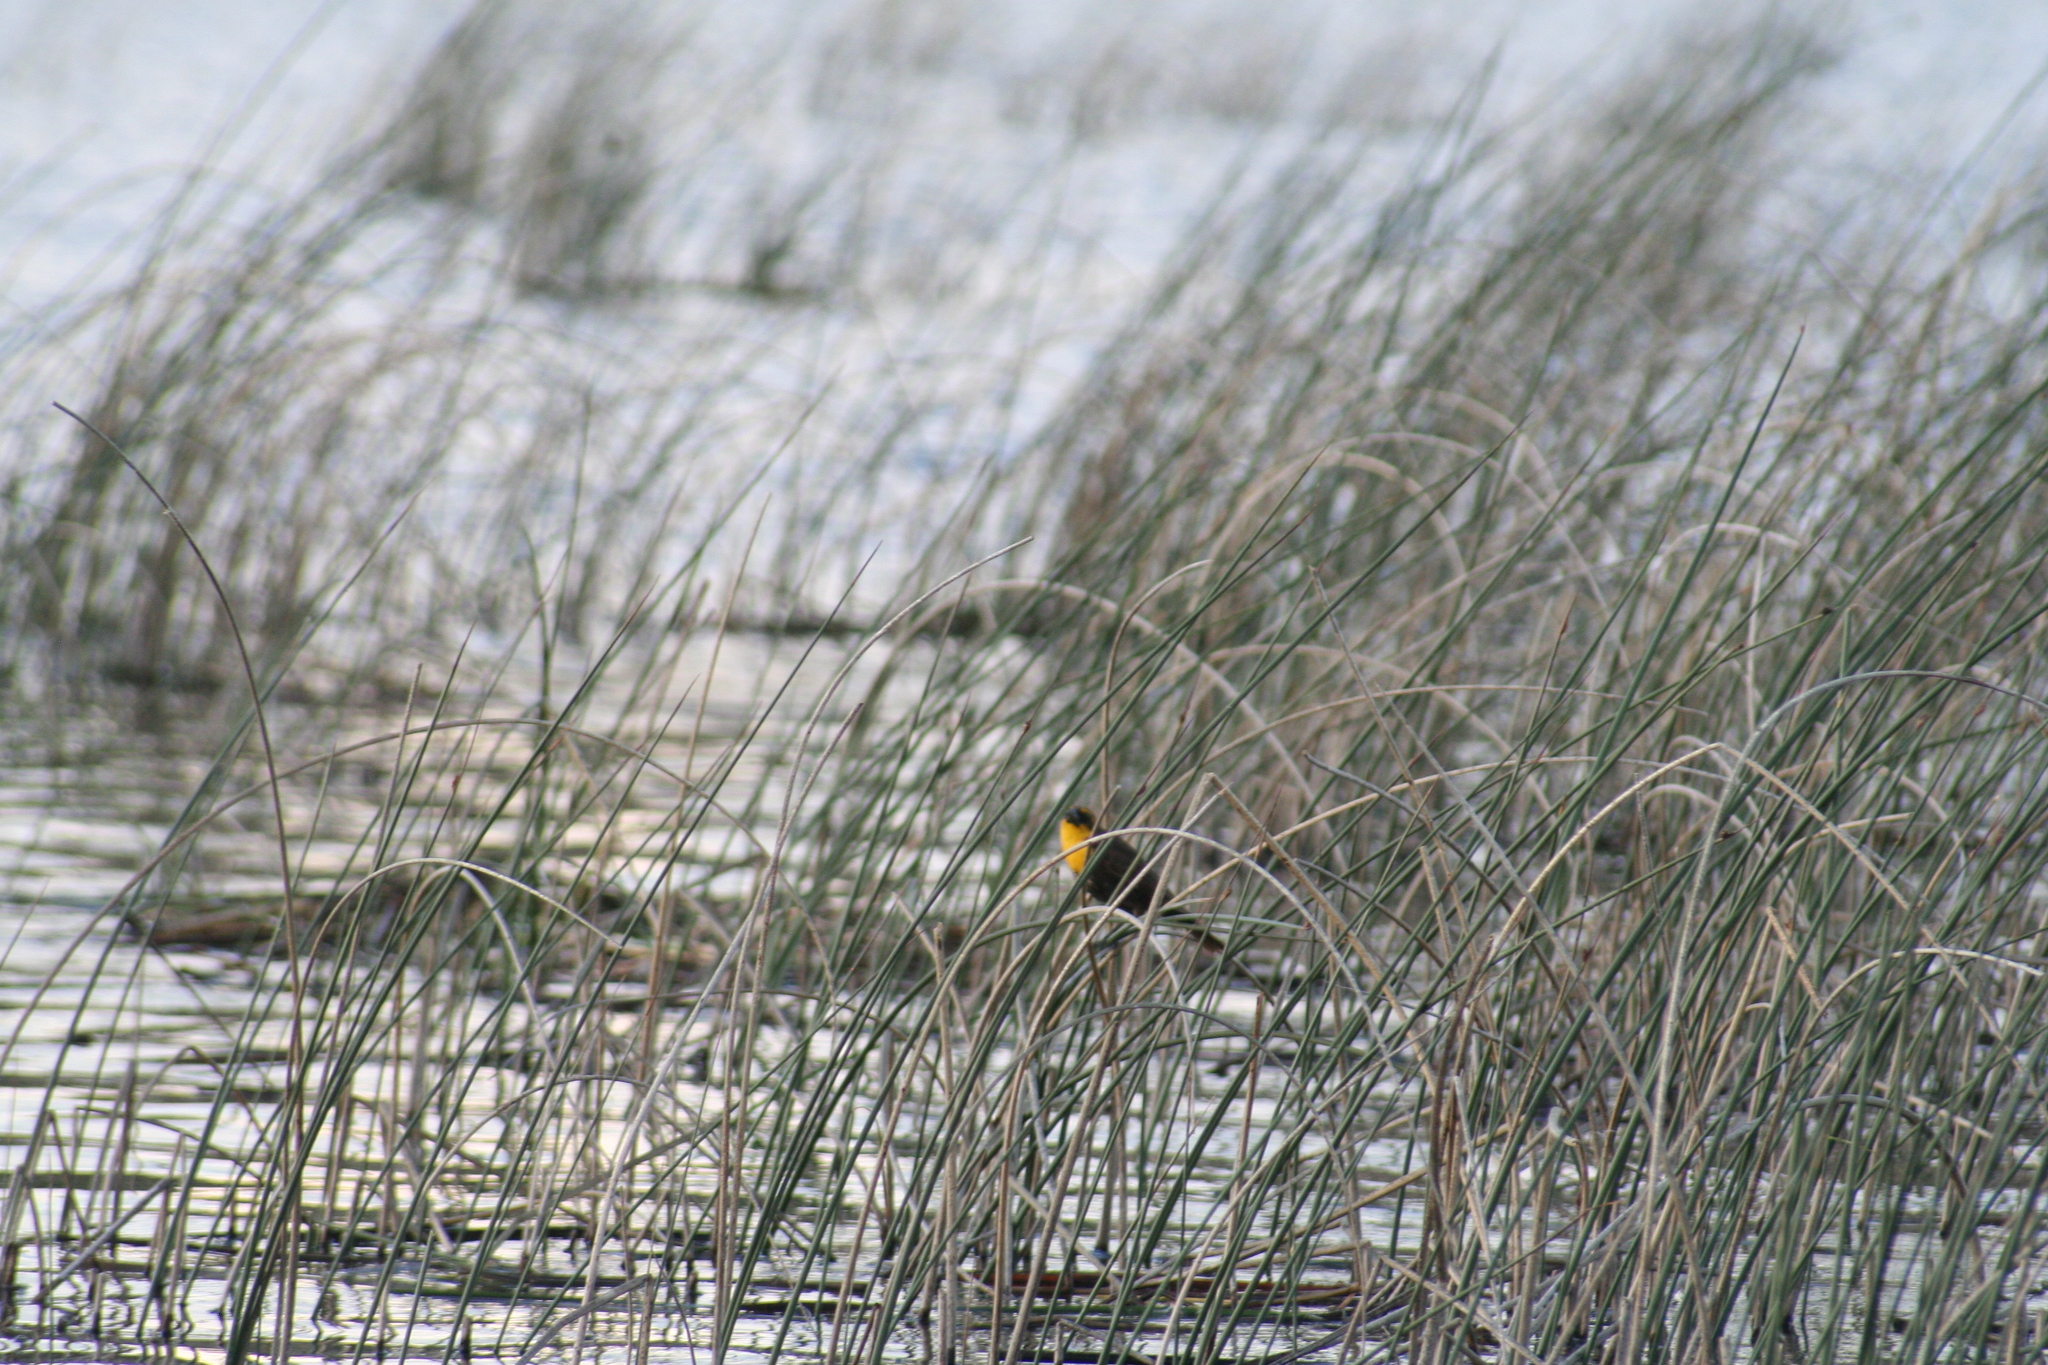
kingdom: Animalia
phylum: Chordata
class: Aves
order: Passeriformes
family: Icteridae
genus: Xanthocephalus
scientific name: Xanthocephalus xanthocephalus
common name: Yellow-headed blackbird
